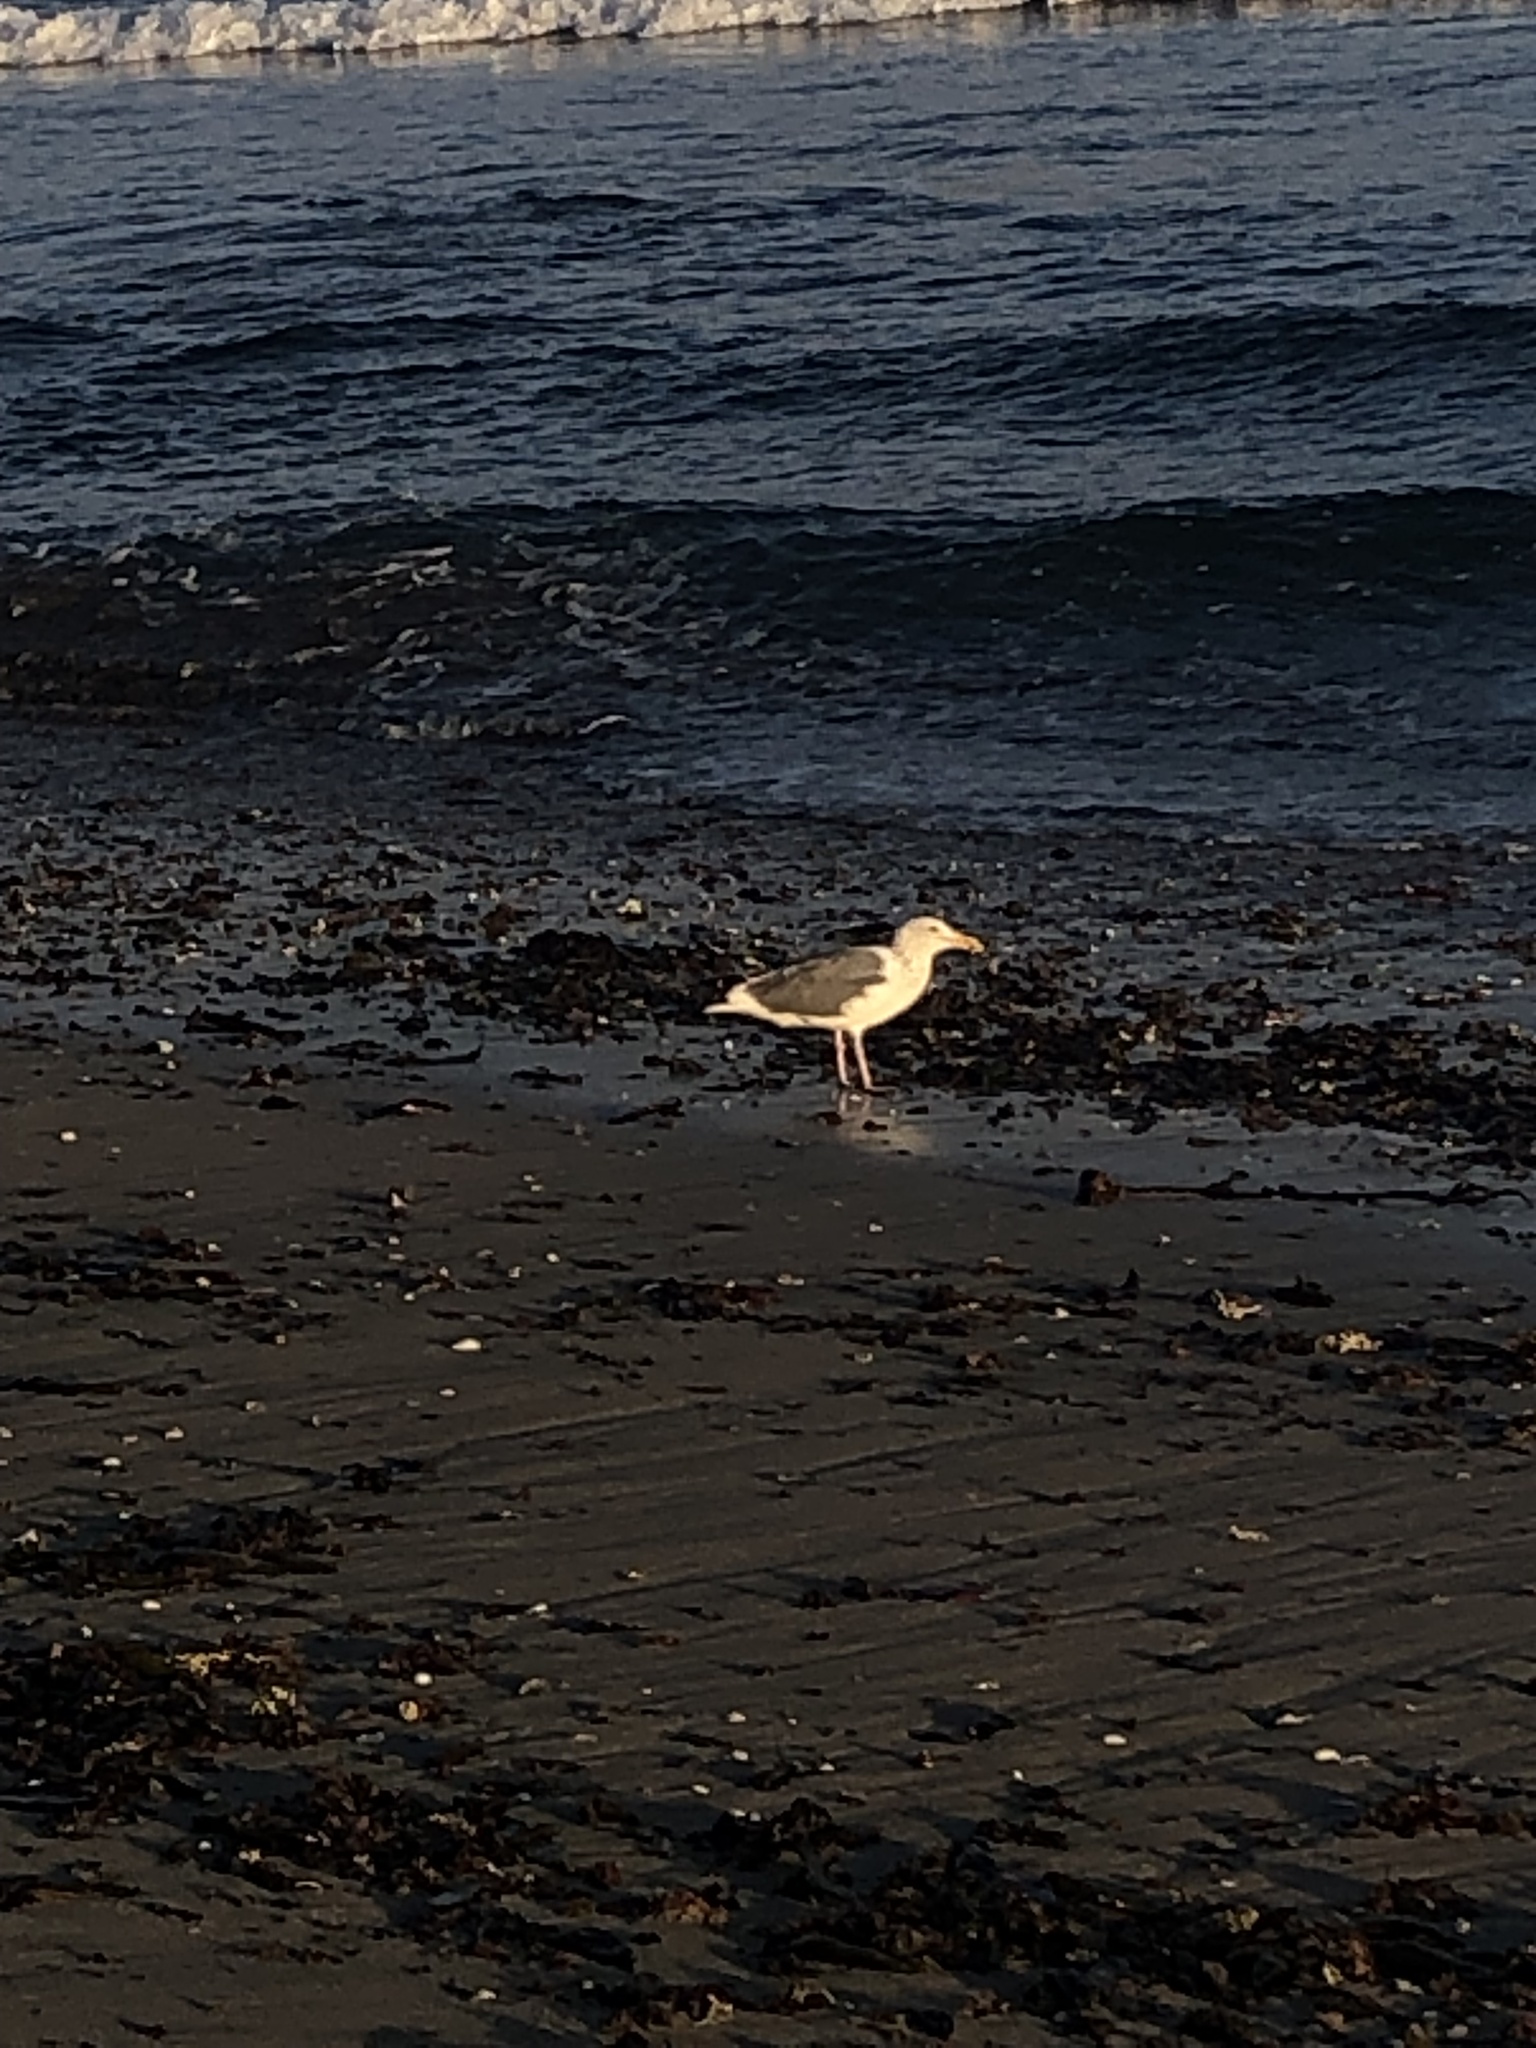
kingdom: Animalia
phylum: Chordata
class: Aves
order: Charadriiformes
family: Laridae
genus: Larus
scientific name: Larus occidentalis
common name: Western gull
